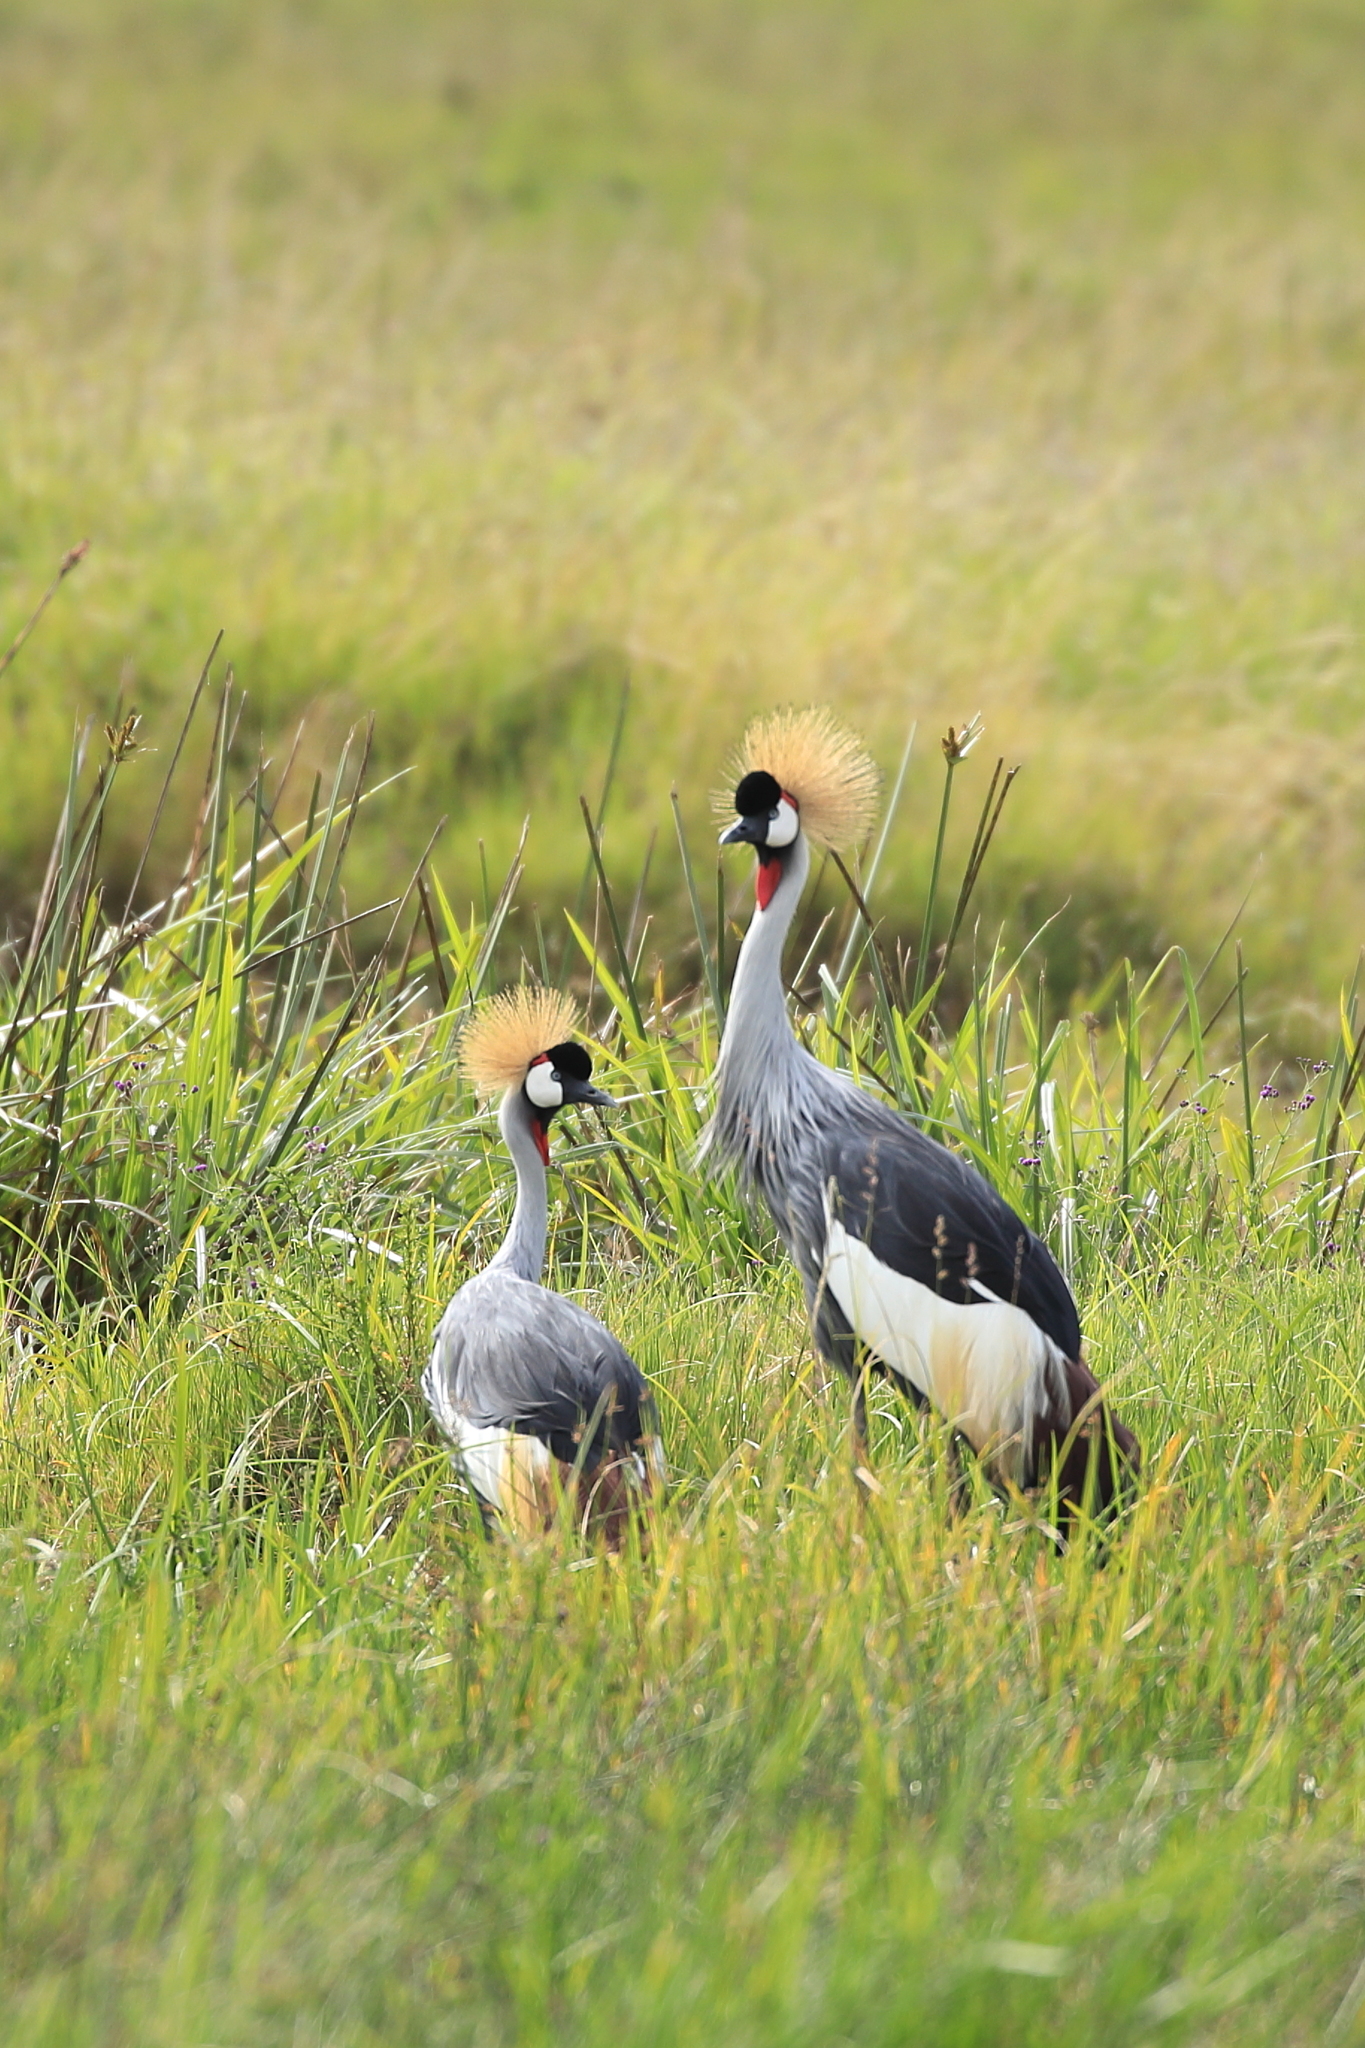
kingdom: Animalia
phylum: Chordata
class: Aves
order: Gruiformes
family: Gruidae
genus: Balearica
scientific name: Balearica regulorum
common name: Grey crowned crane
